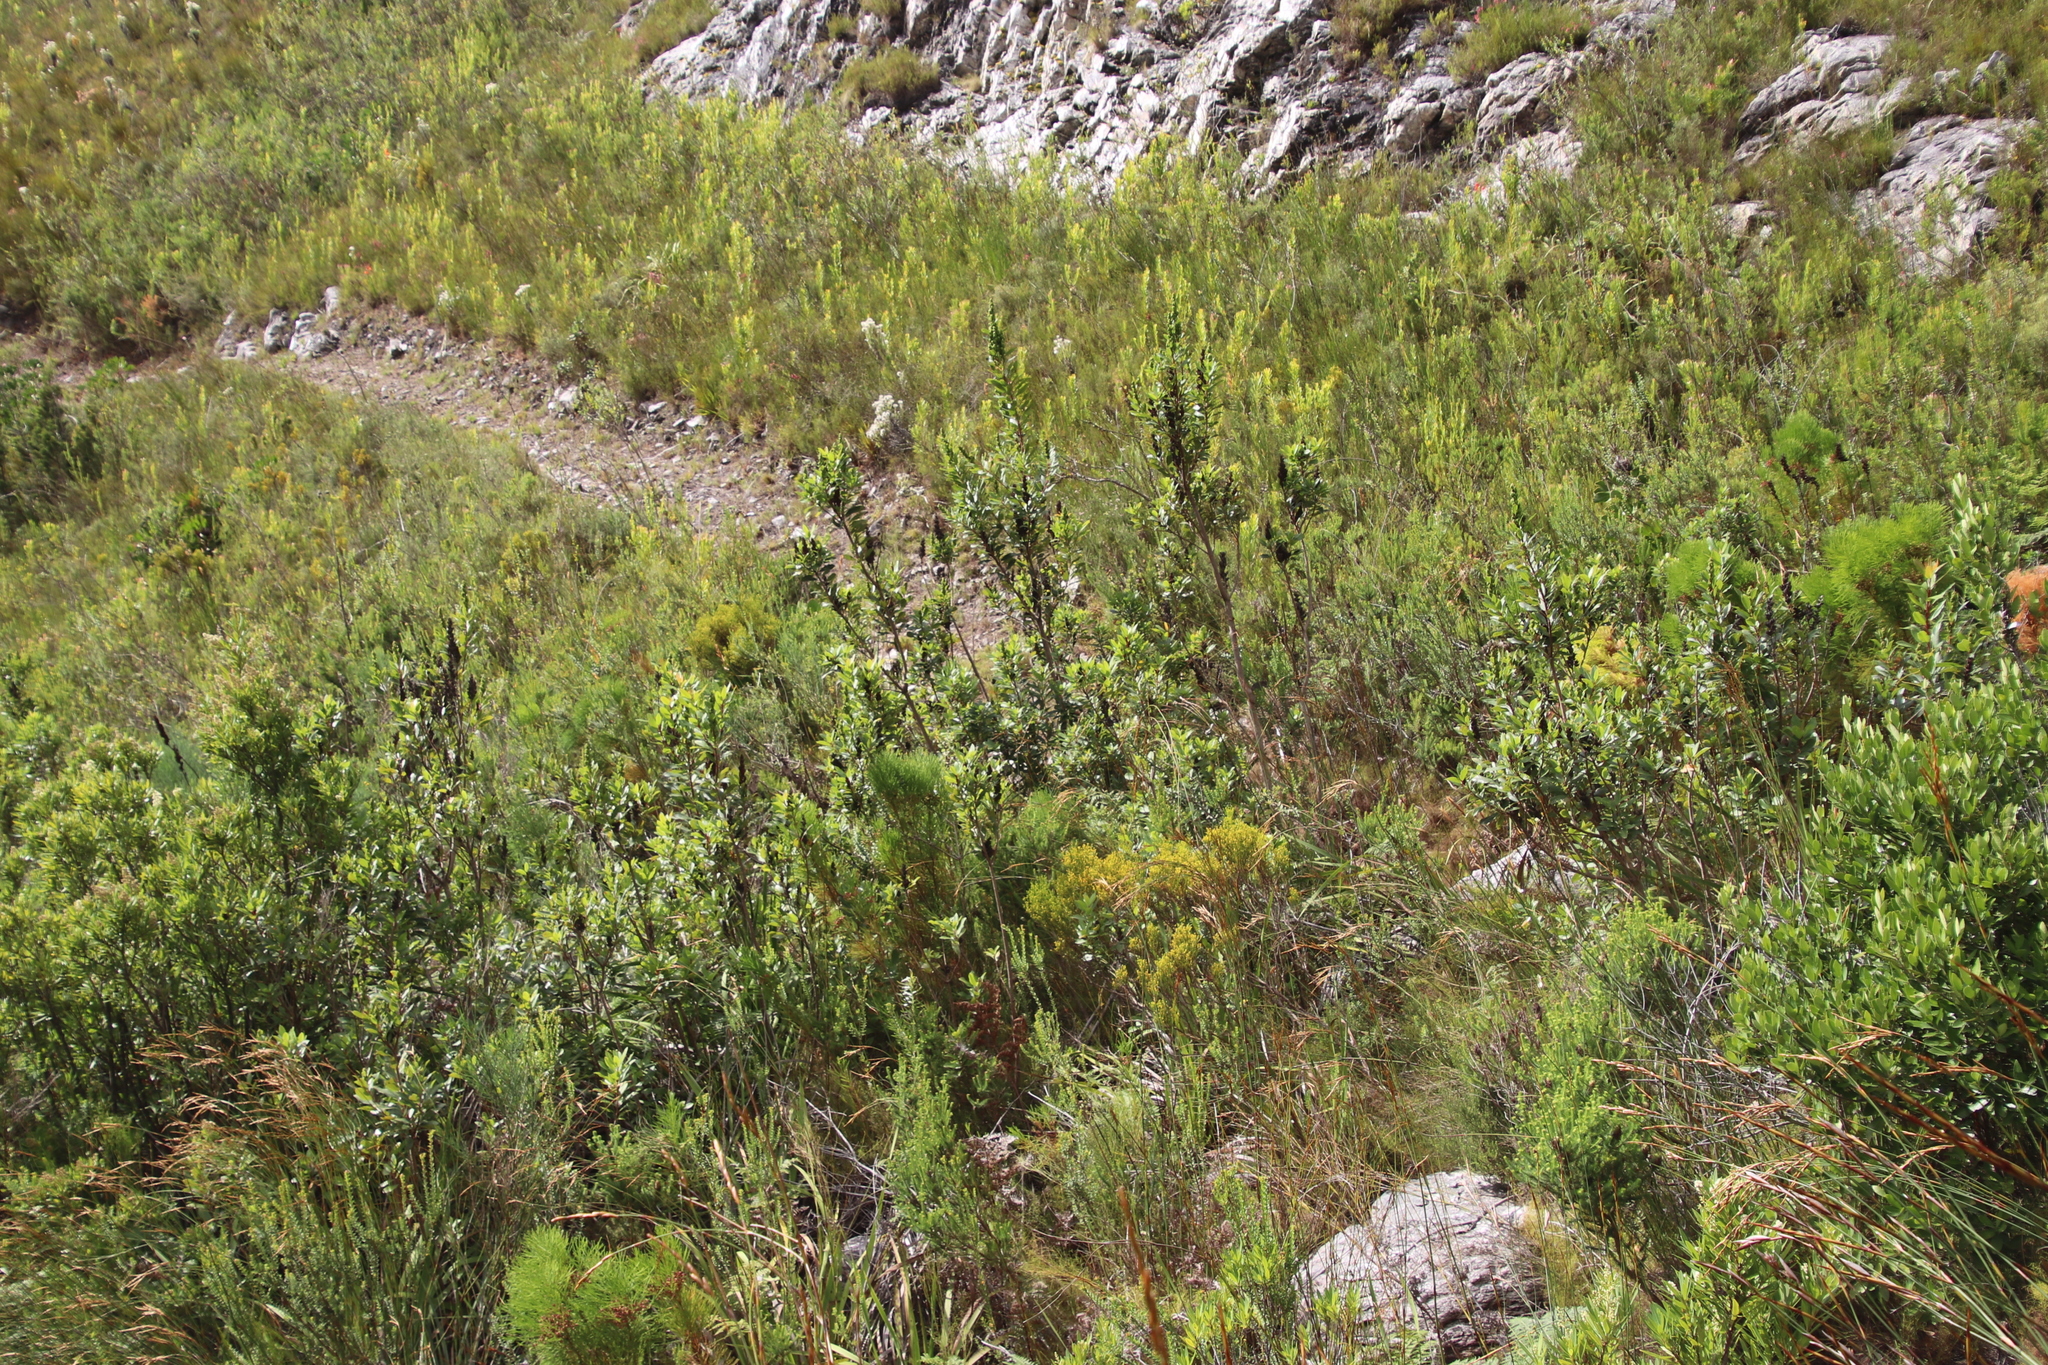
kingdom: Plantae
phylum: Tracheophyta
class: Magnoliopsida
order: Sapindales
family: Anacardiaceae
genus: Laurophyllus
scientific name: Laurophyllus capensis
